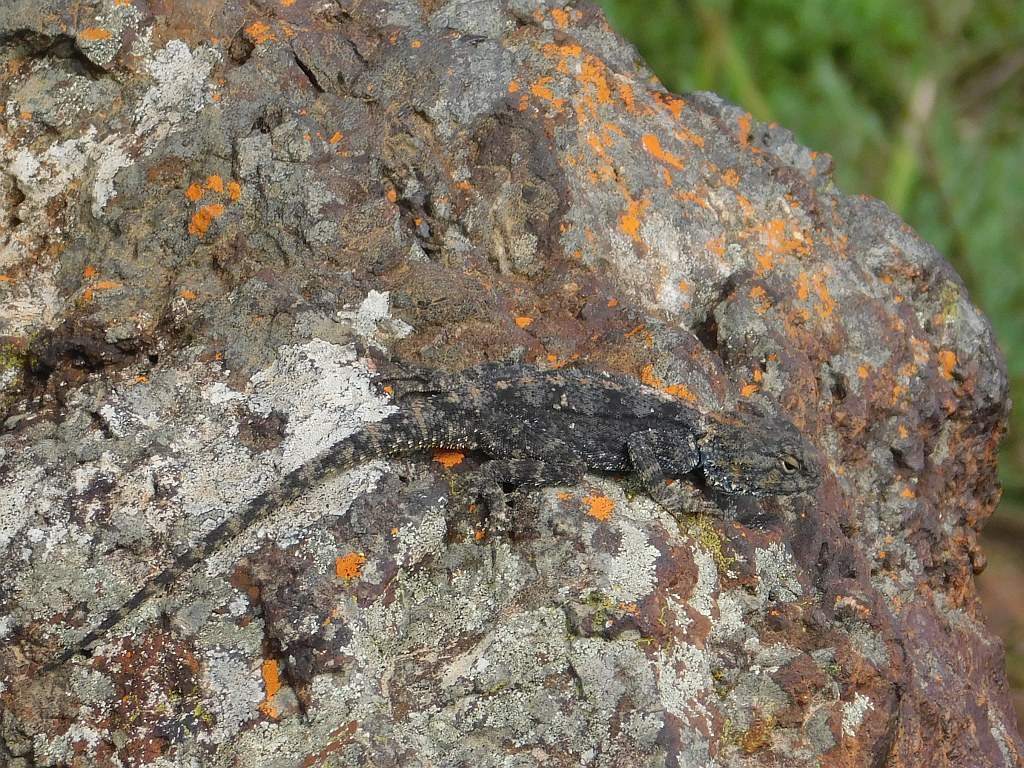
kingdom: Animalia
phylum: Chordata
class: Squamata
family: Agamidae
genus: Agama
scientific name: Agama atra
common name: Southern african rock agama
